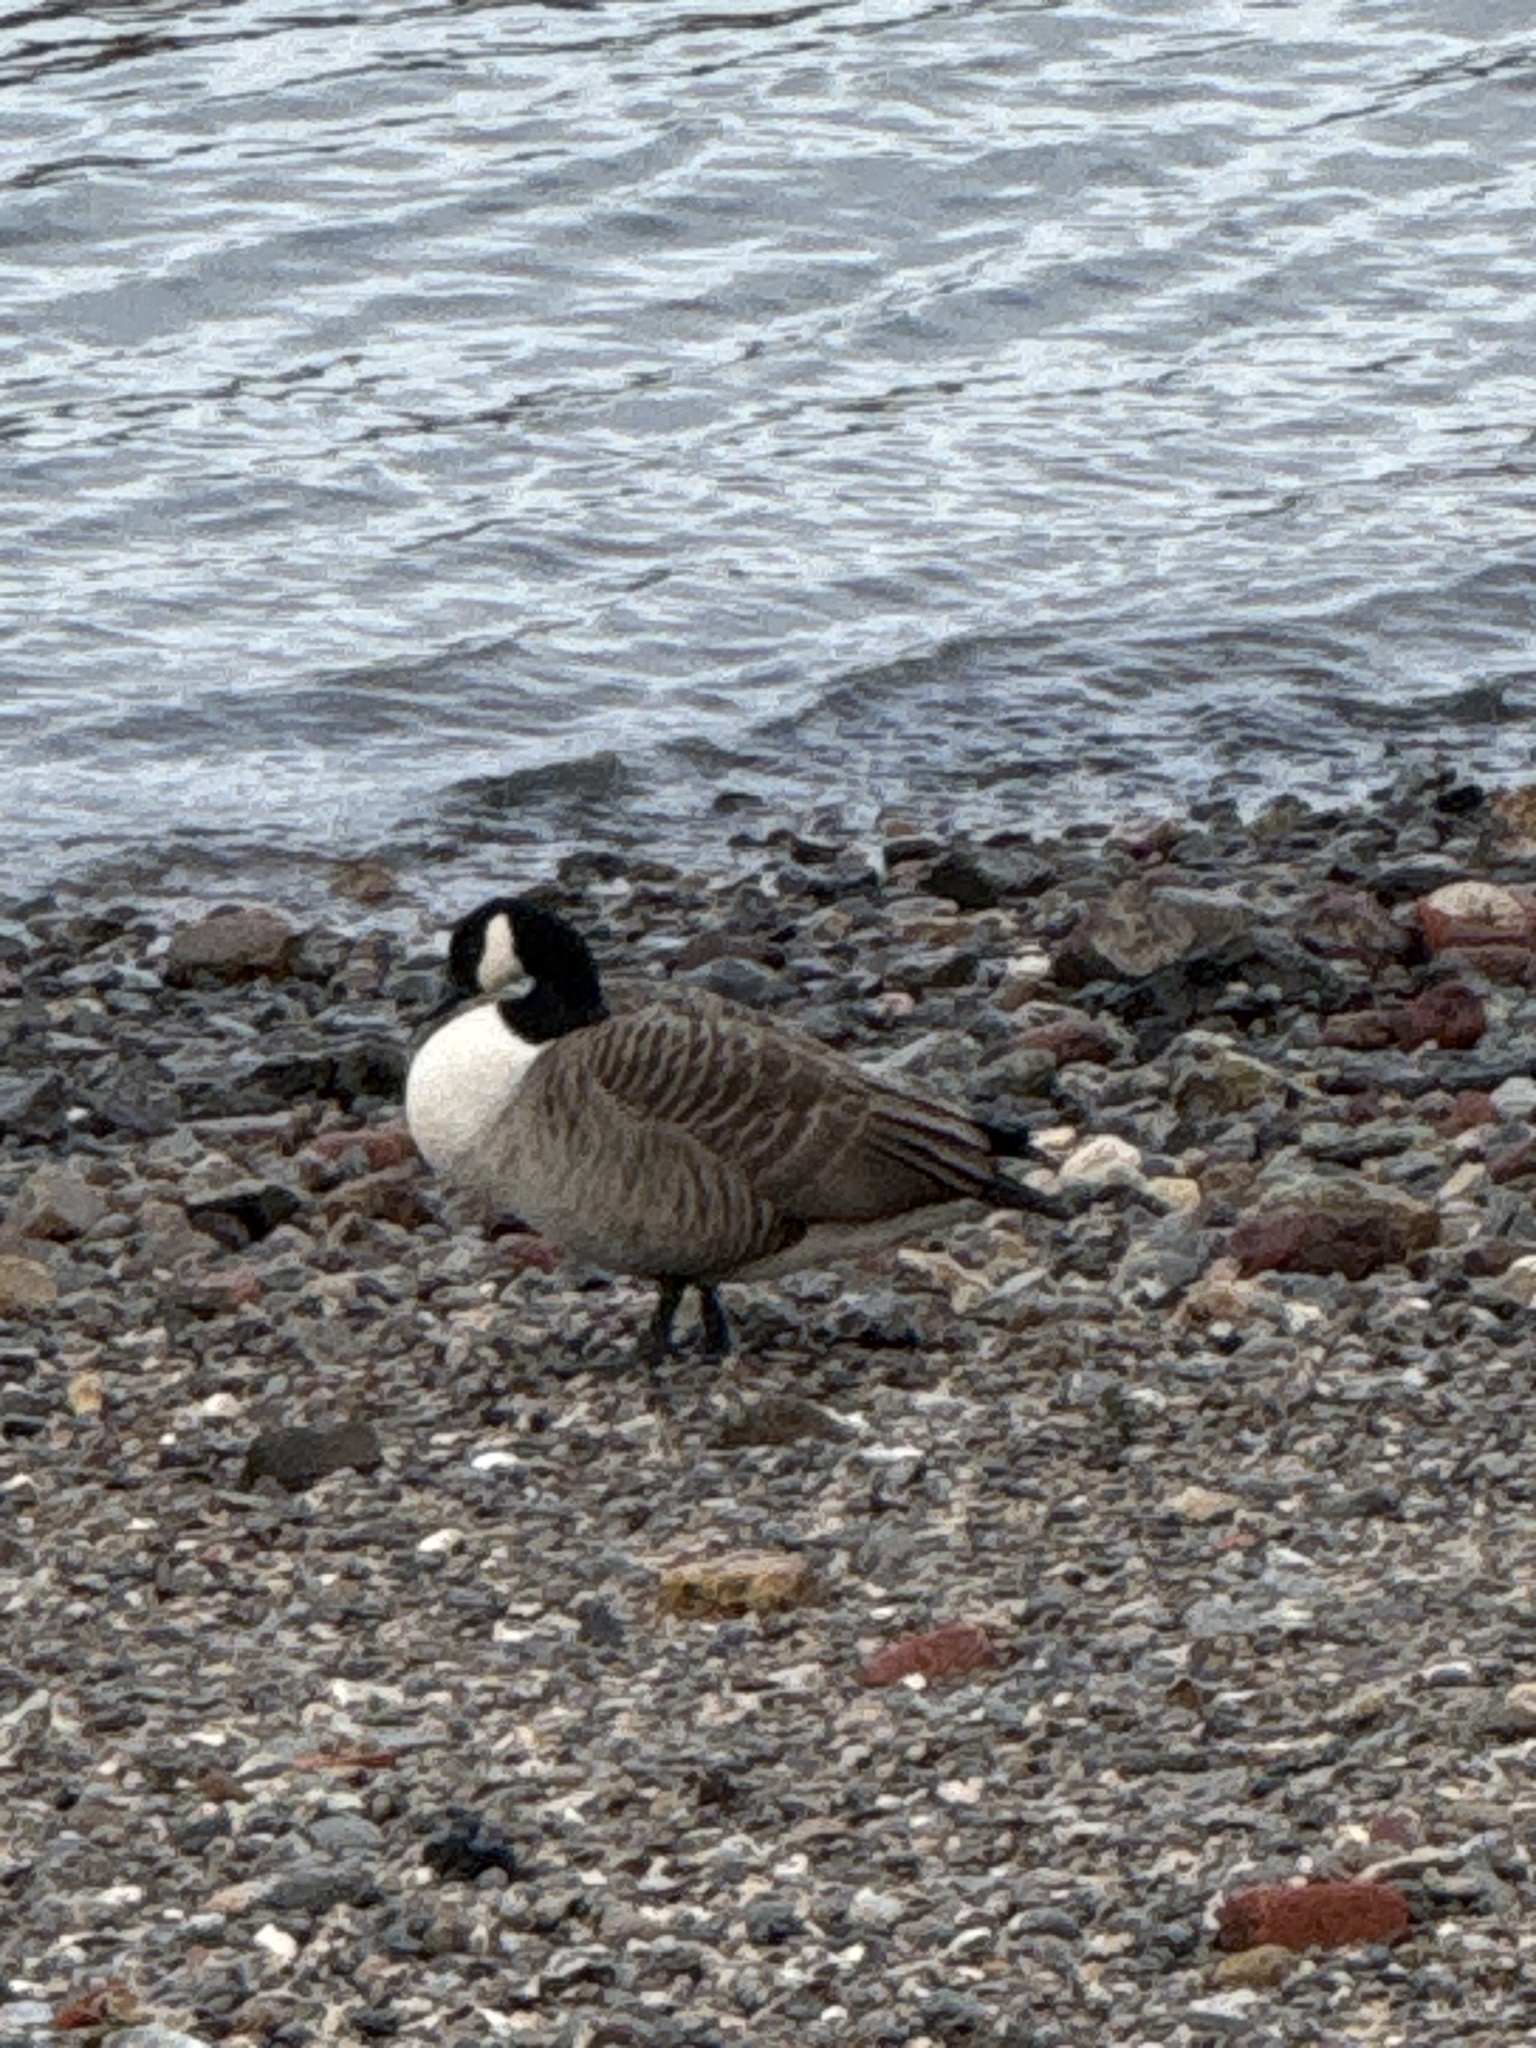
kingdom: Animalia
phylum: Chordata
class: Aves
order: Anseriformes
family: Anatidae
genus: Branta
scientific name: Branta canadensis
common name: Canada goose
